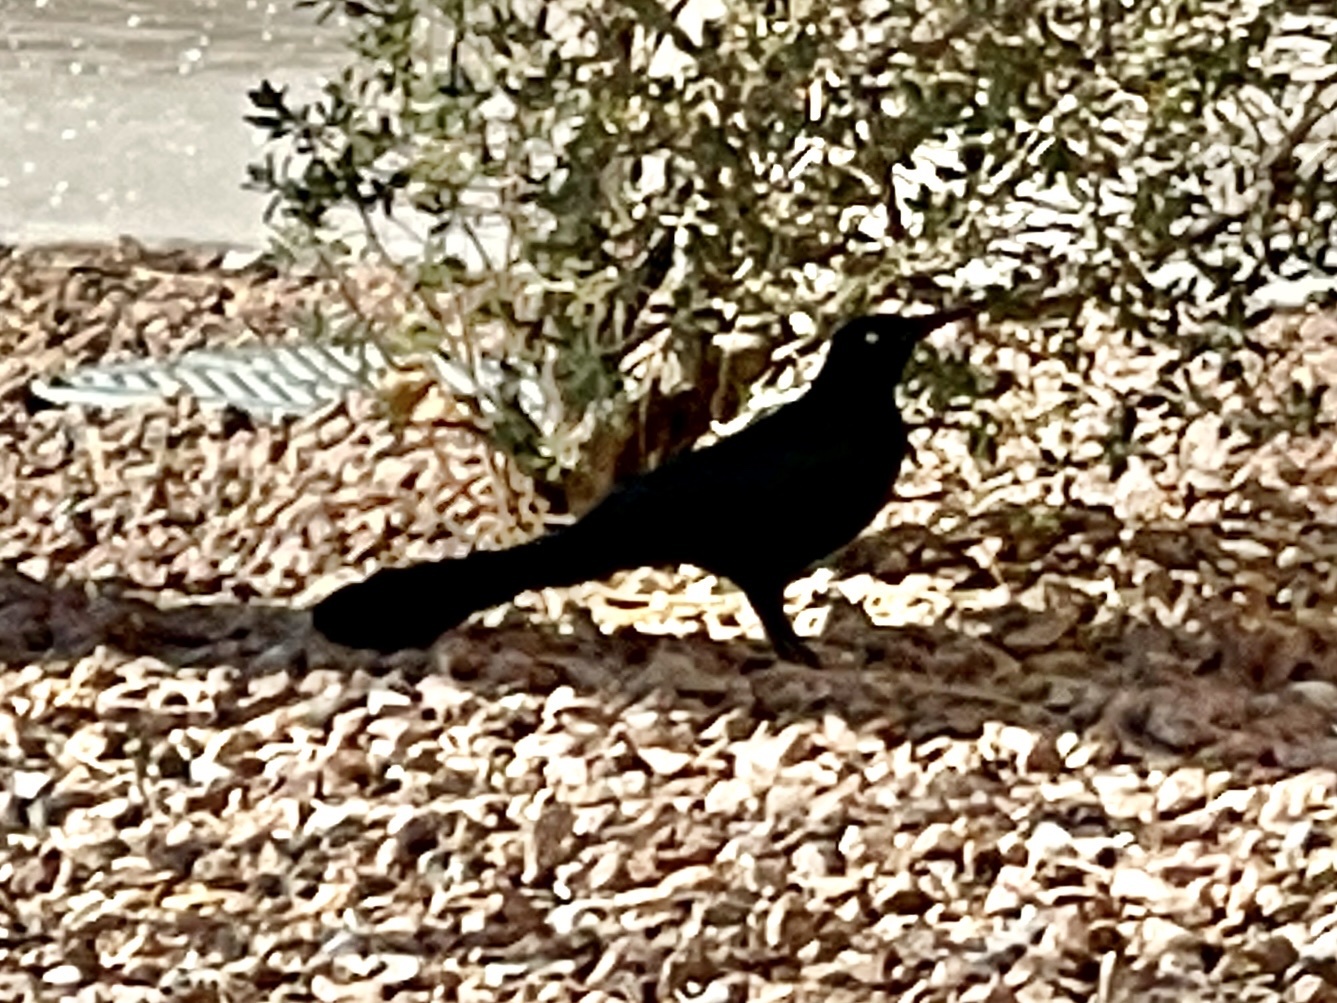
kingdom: Animalia
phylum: Chordata
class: Aves
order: Passeriformes
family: Icteridae
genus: Quiscalus
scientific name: Quiscalus mexicanus
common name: Great-tailed grackle
